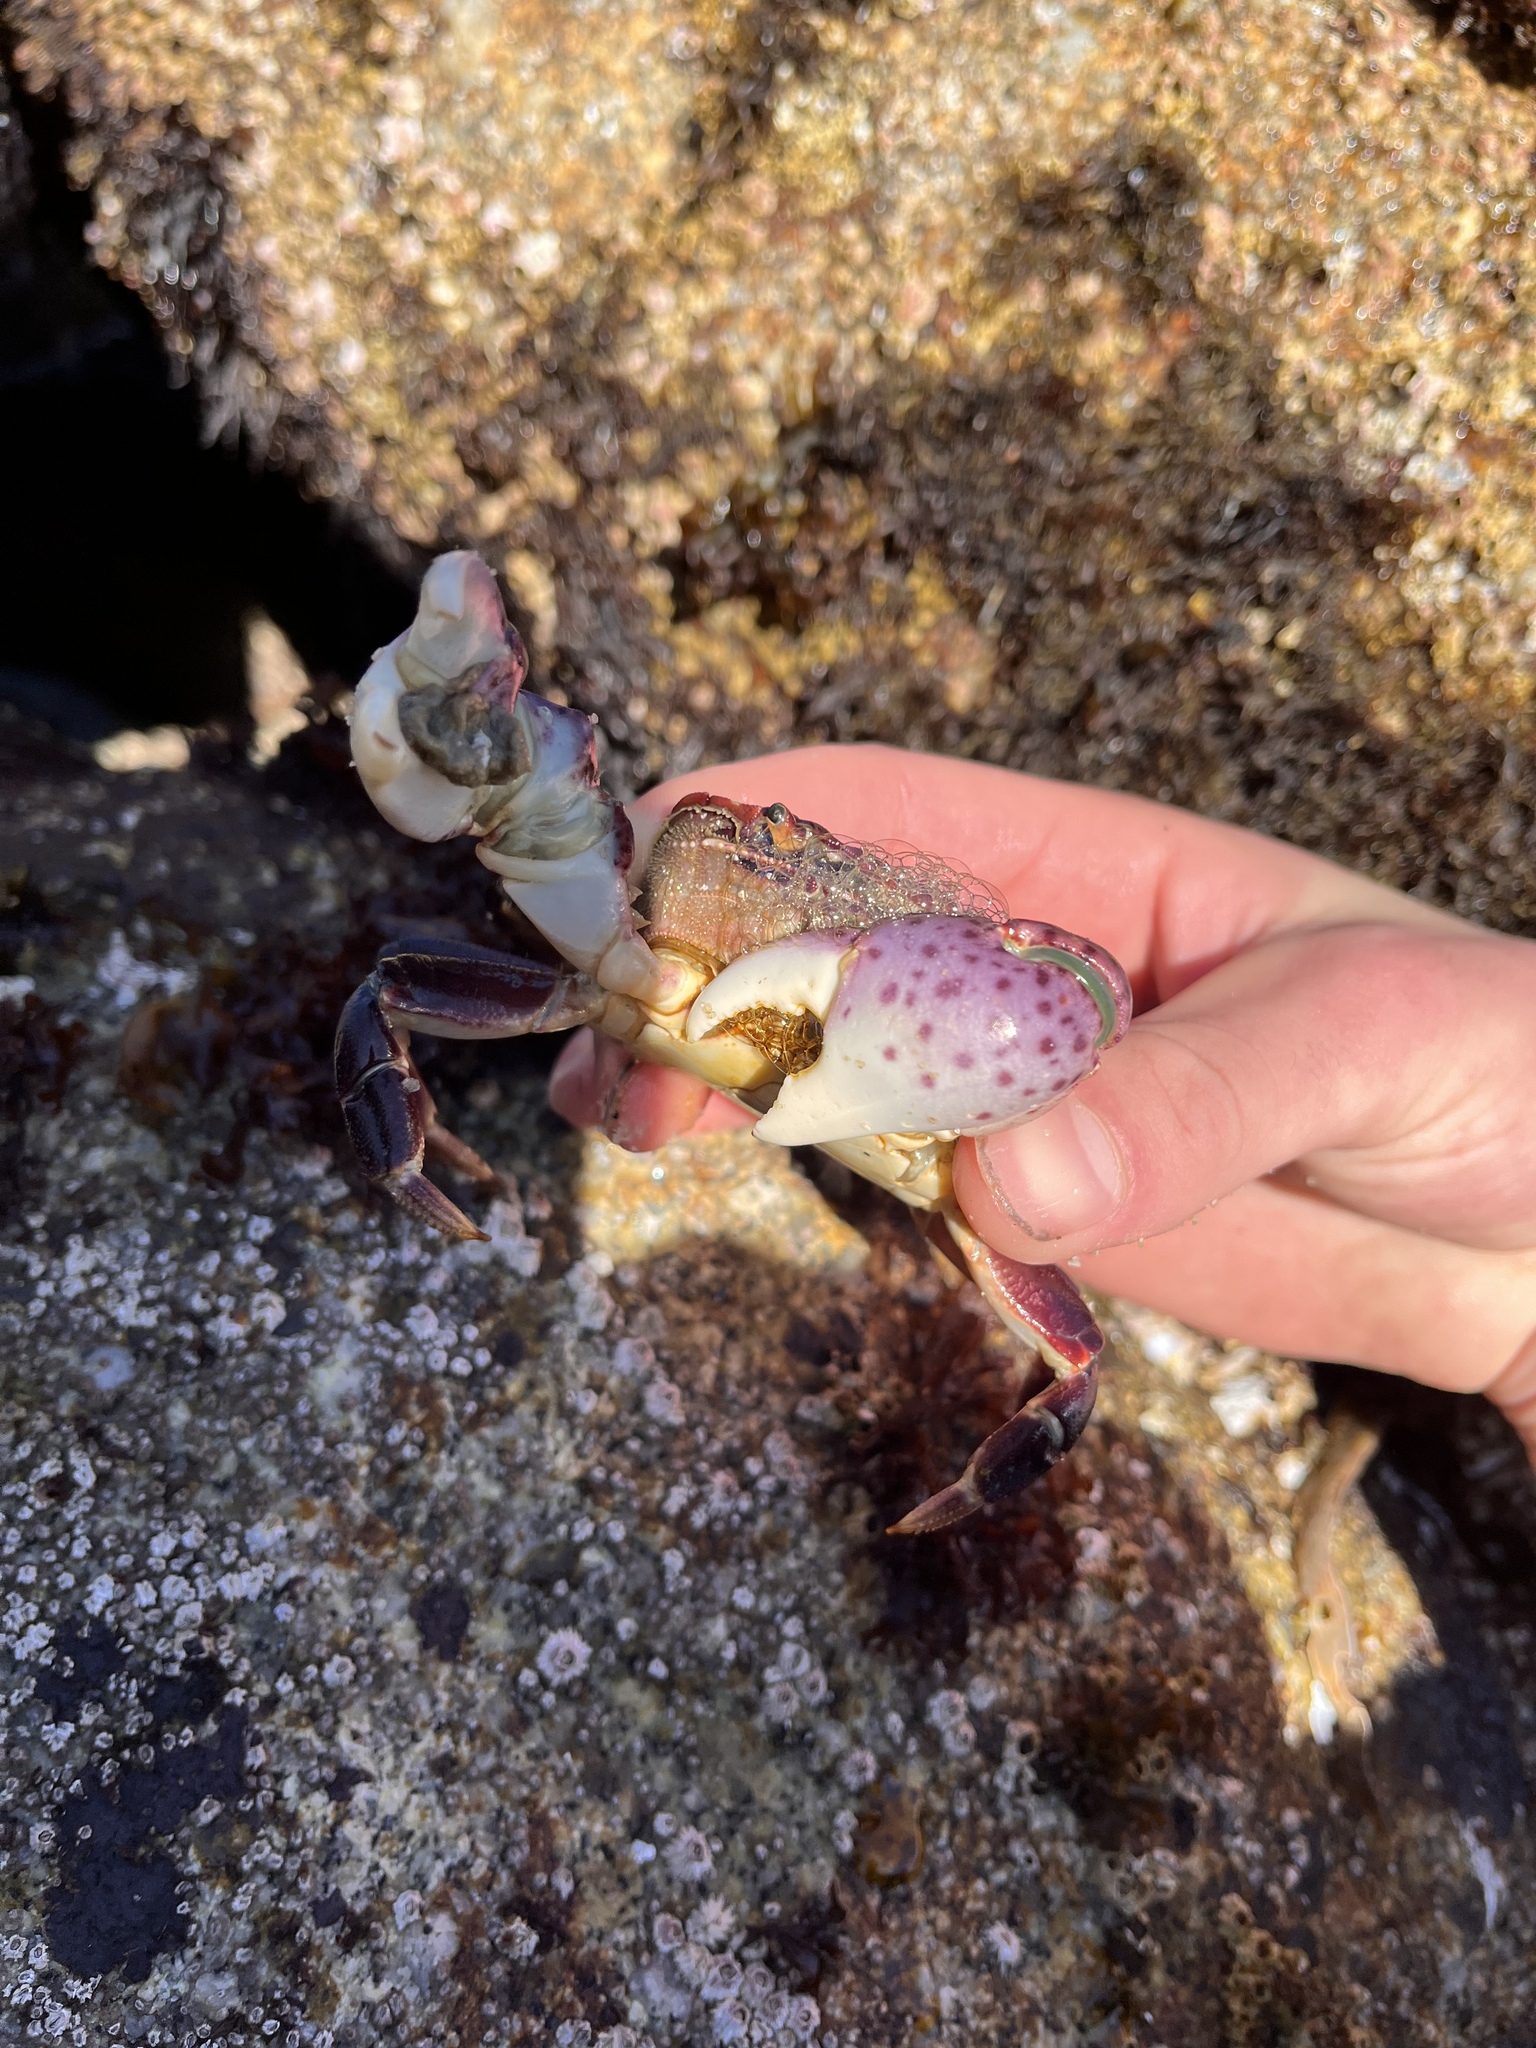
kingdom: Animalia
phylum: Arthropoda
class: Malacostraca
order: Decapoda
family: Varunidae
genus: Hemigrapsus
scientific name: Hemigrapsus nudus
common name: Purple shore crab
